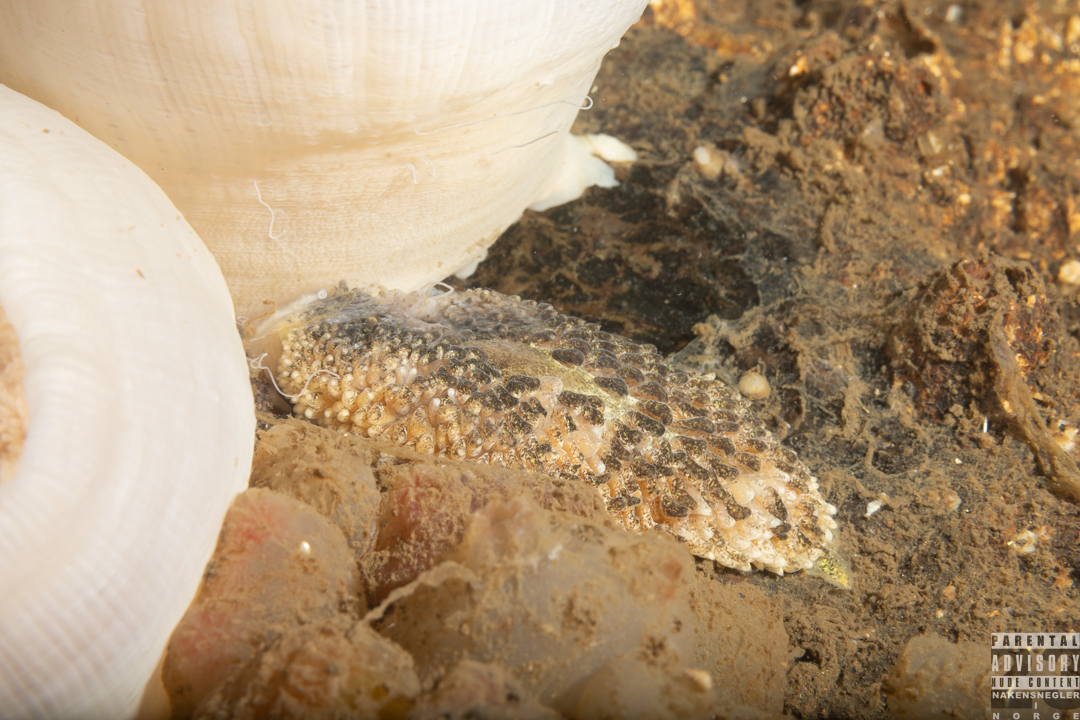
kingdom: Animalia
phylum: Mollusca
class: Gastropoda
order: Nudibranchia
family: Aeolidiidae
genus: Aeolidia
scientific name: Aeolidia papillosa
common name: Common grey sea slug
